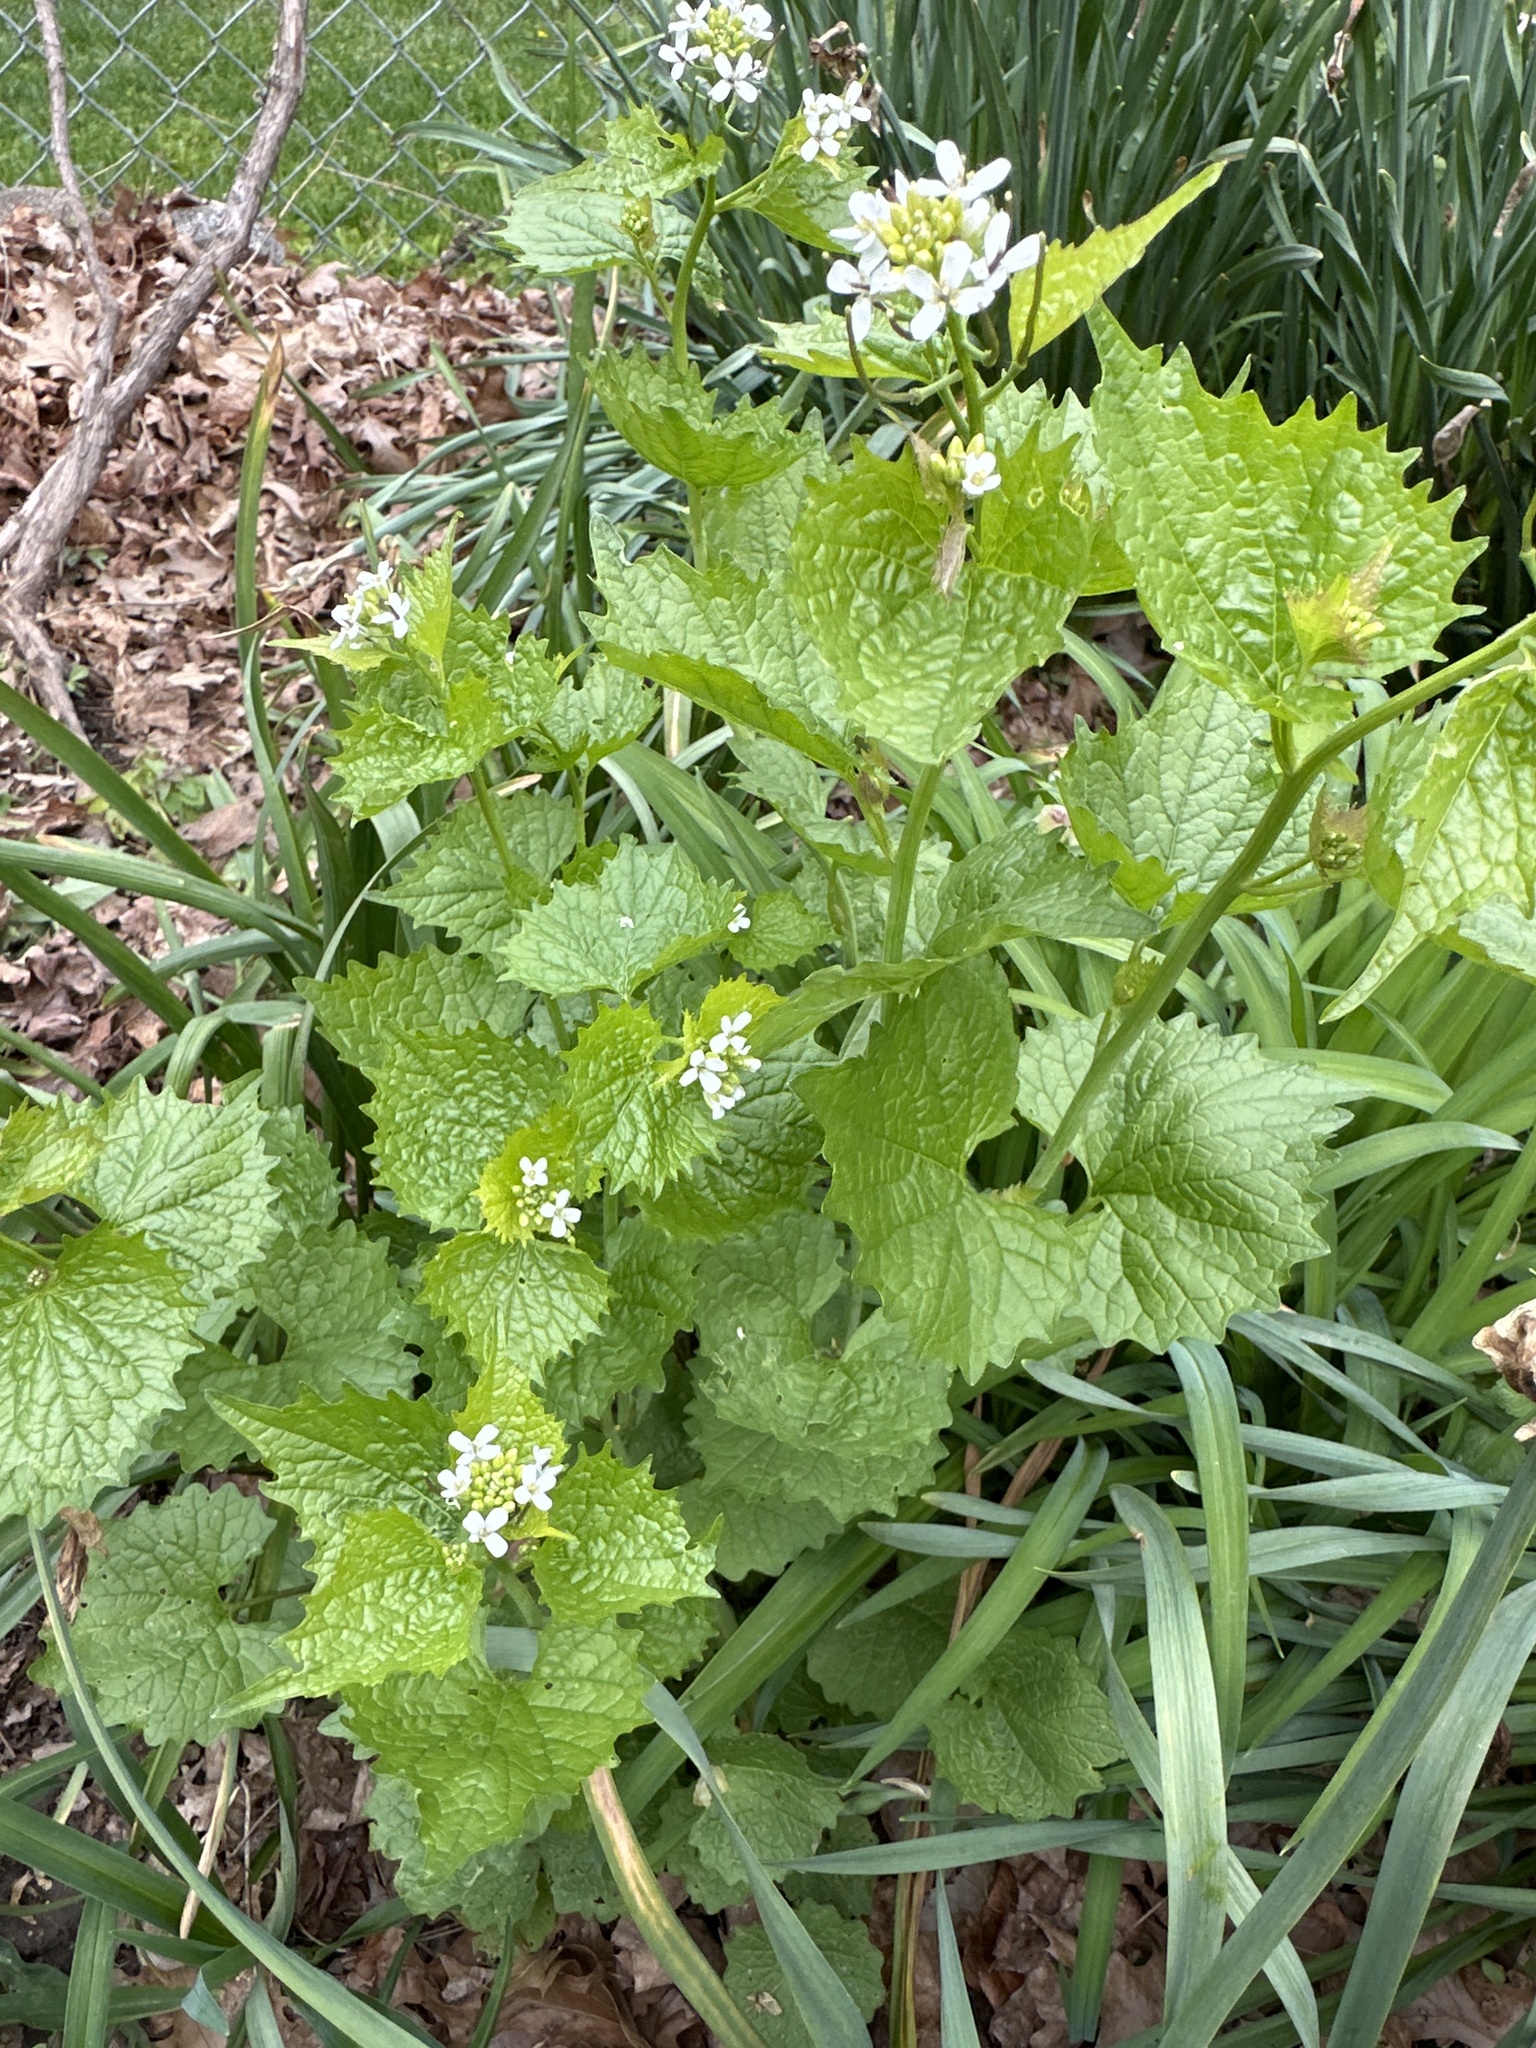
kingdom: Plantae
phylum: Tracheophyta
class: Magnoliopsida
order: Brassicales
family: Brassicaceae
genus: Alliaria
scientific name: Alliaria petiolata
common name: Garlic mustard
